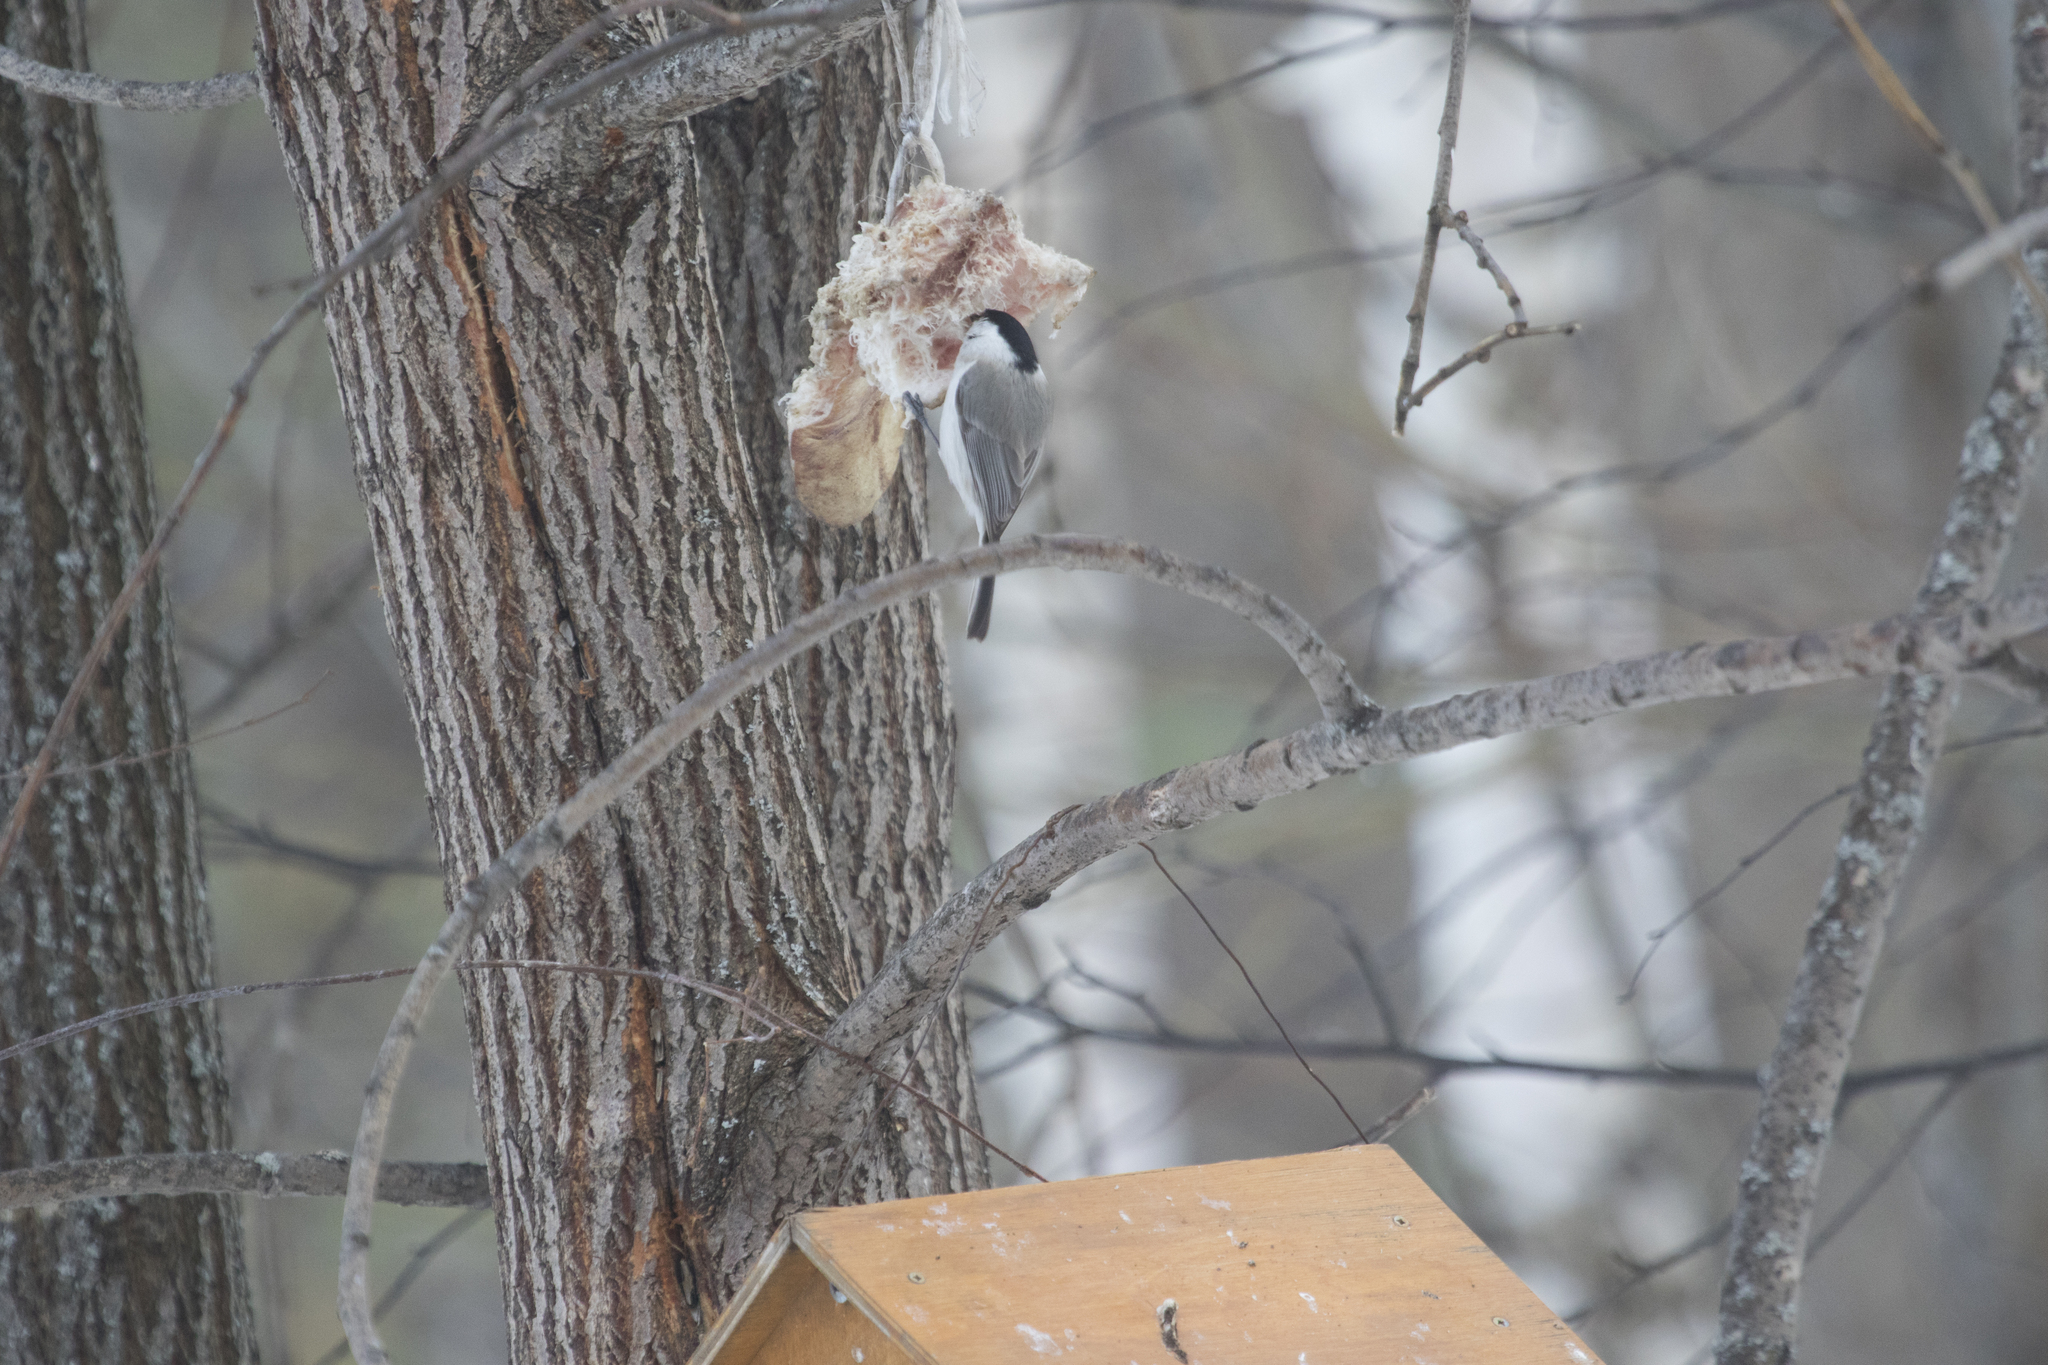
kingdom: Animalia
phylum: Chordata
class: Aves
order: Passeriformes
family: Paridae
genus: Poecile
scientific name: Poecile montanus
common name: Willow tit
